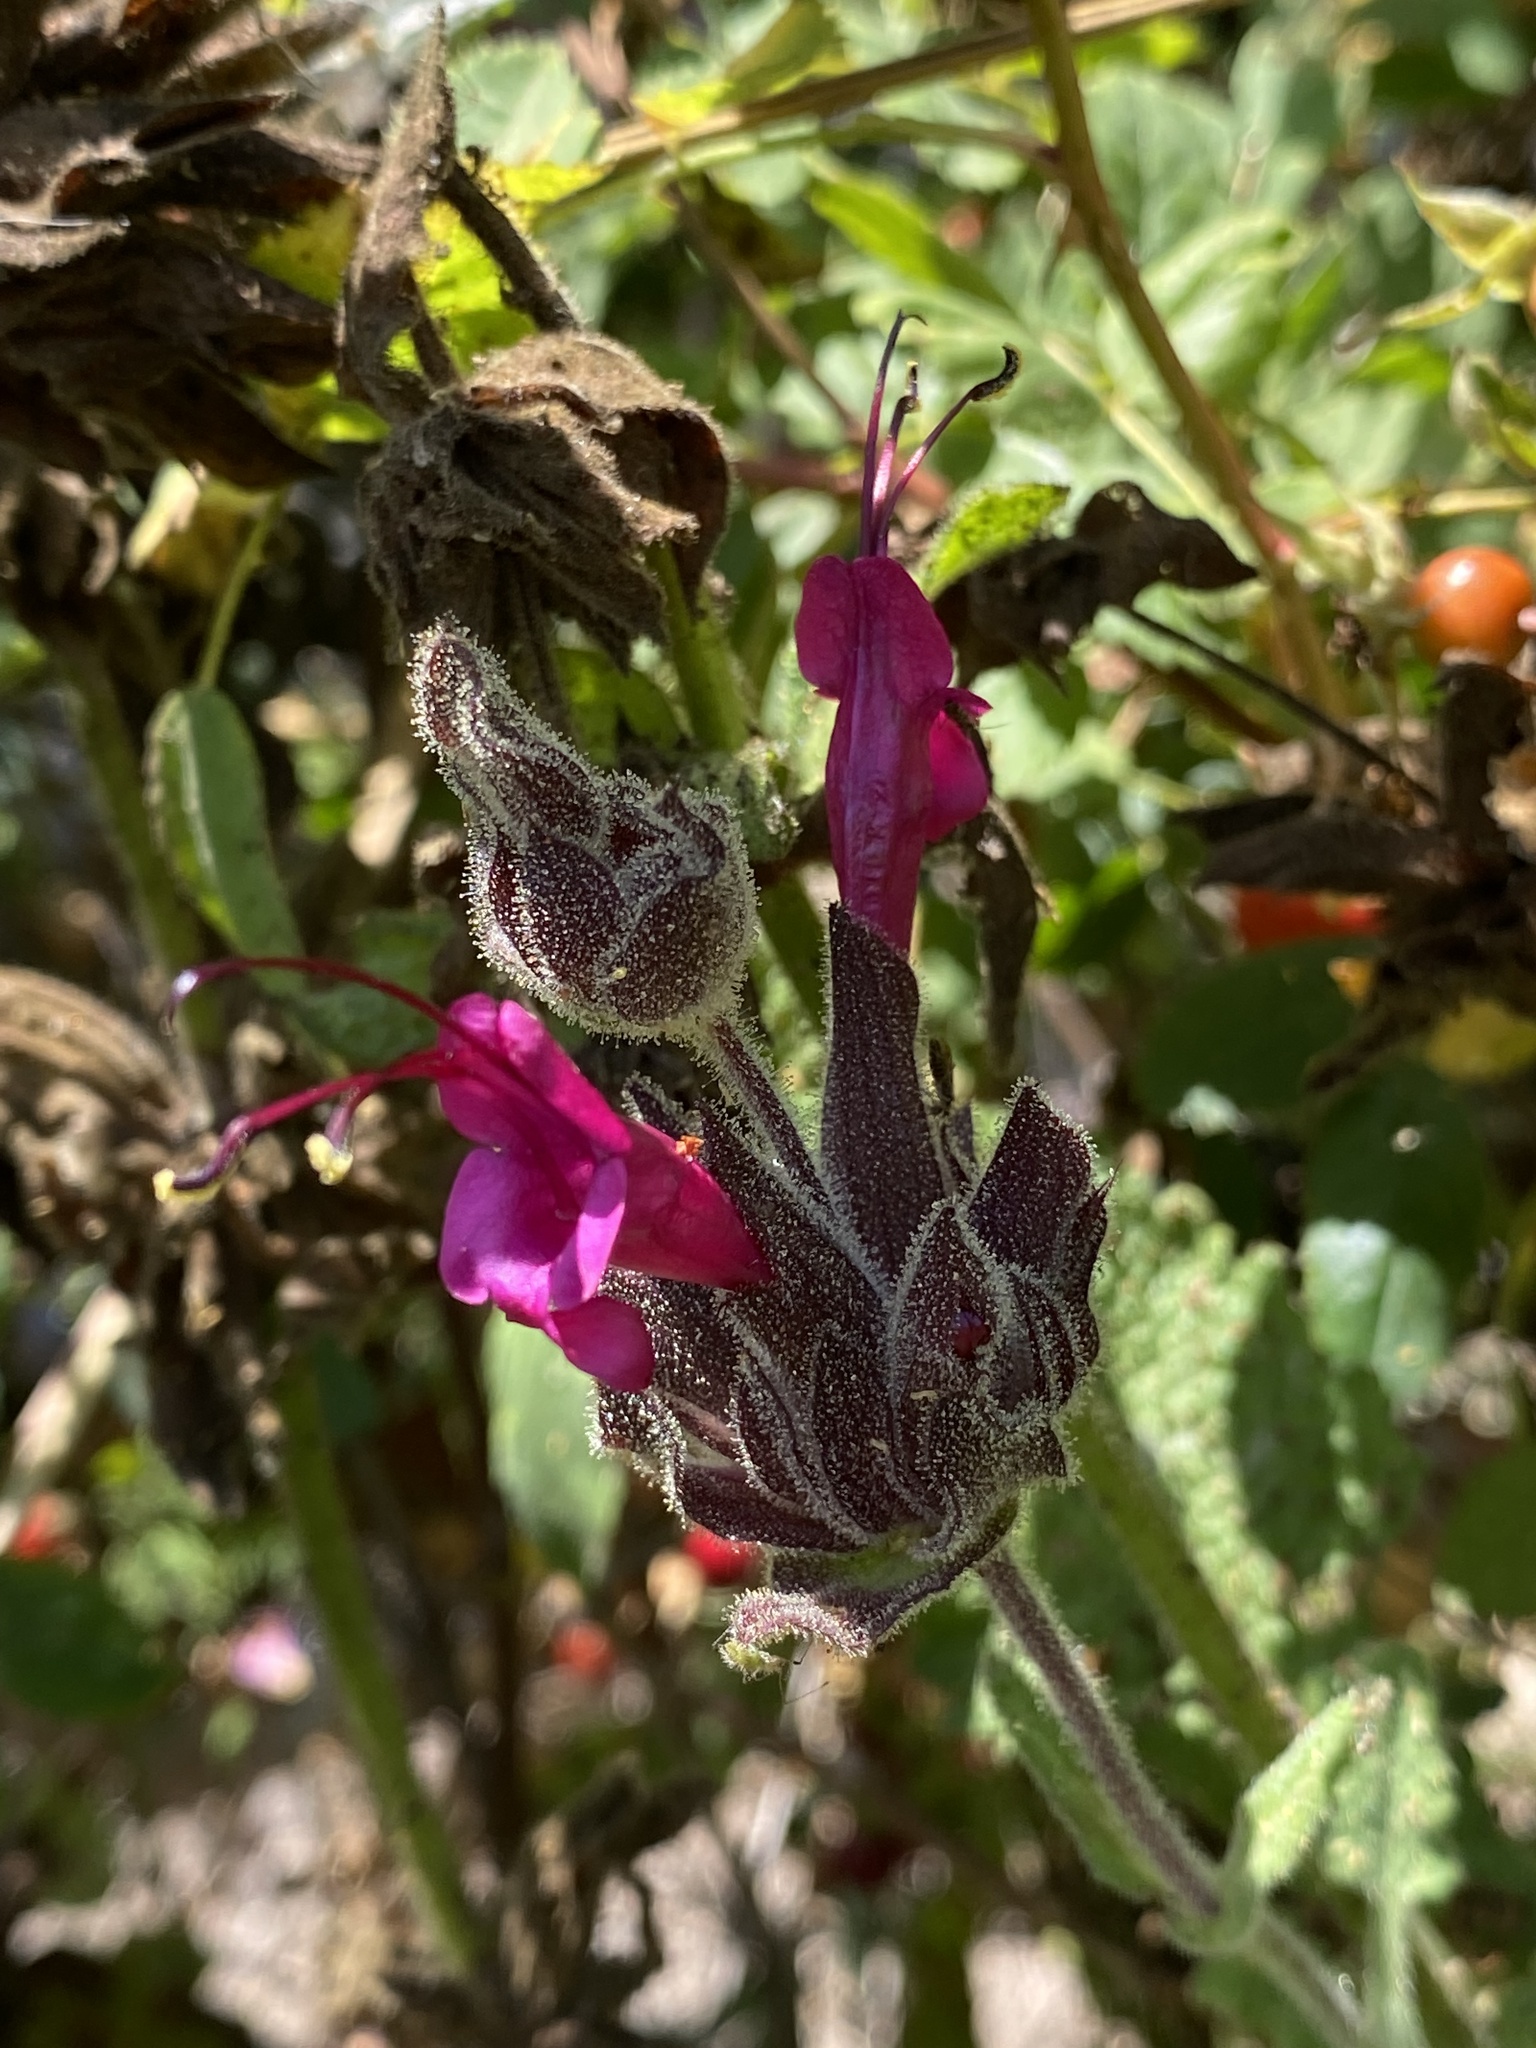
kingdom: Plantae
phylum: Tracheophyta
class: Magnoliopsida
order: Lamiales
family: Lamiaceae
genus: Salvia
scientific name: Salvia spathacea
